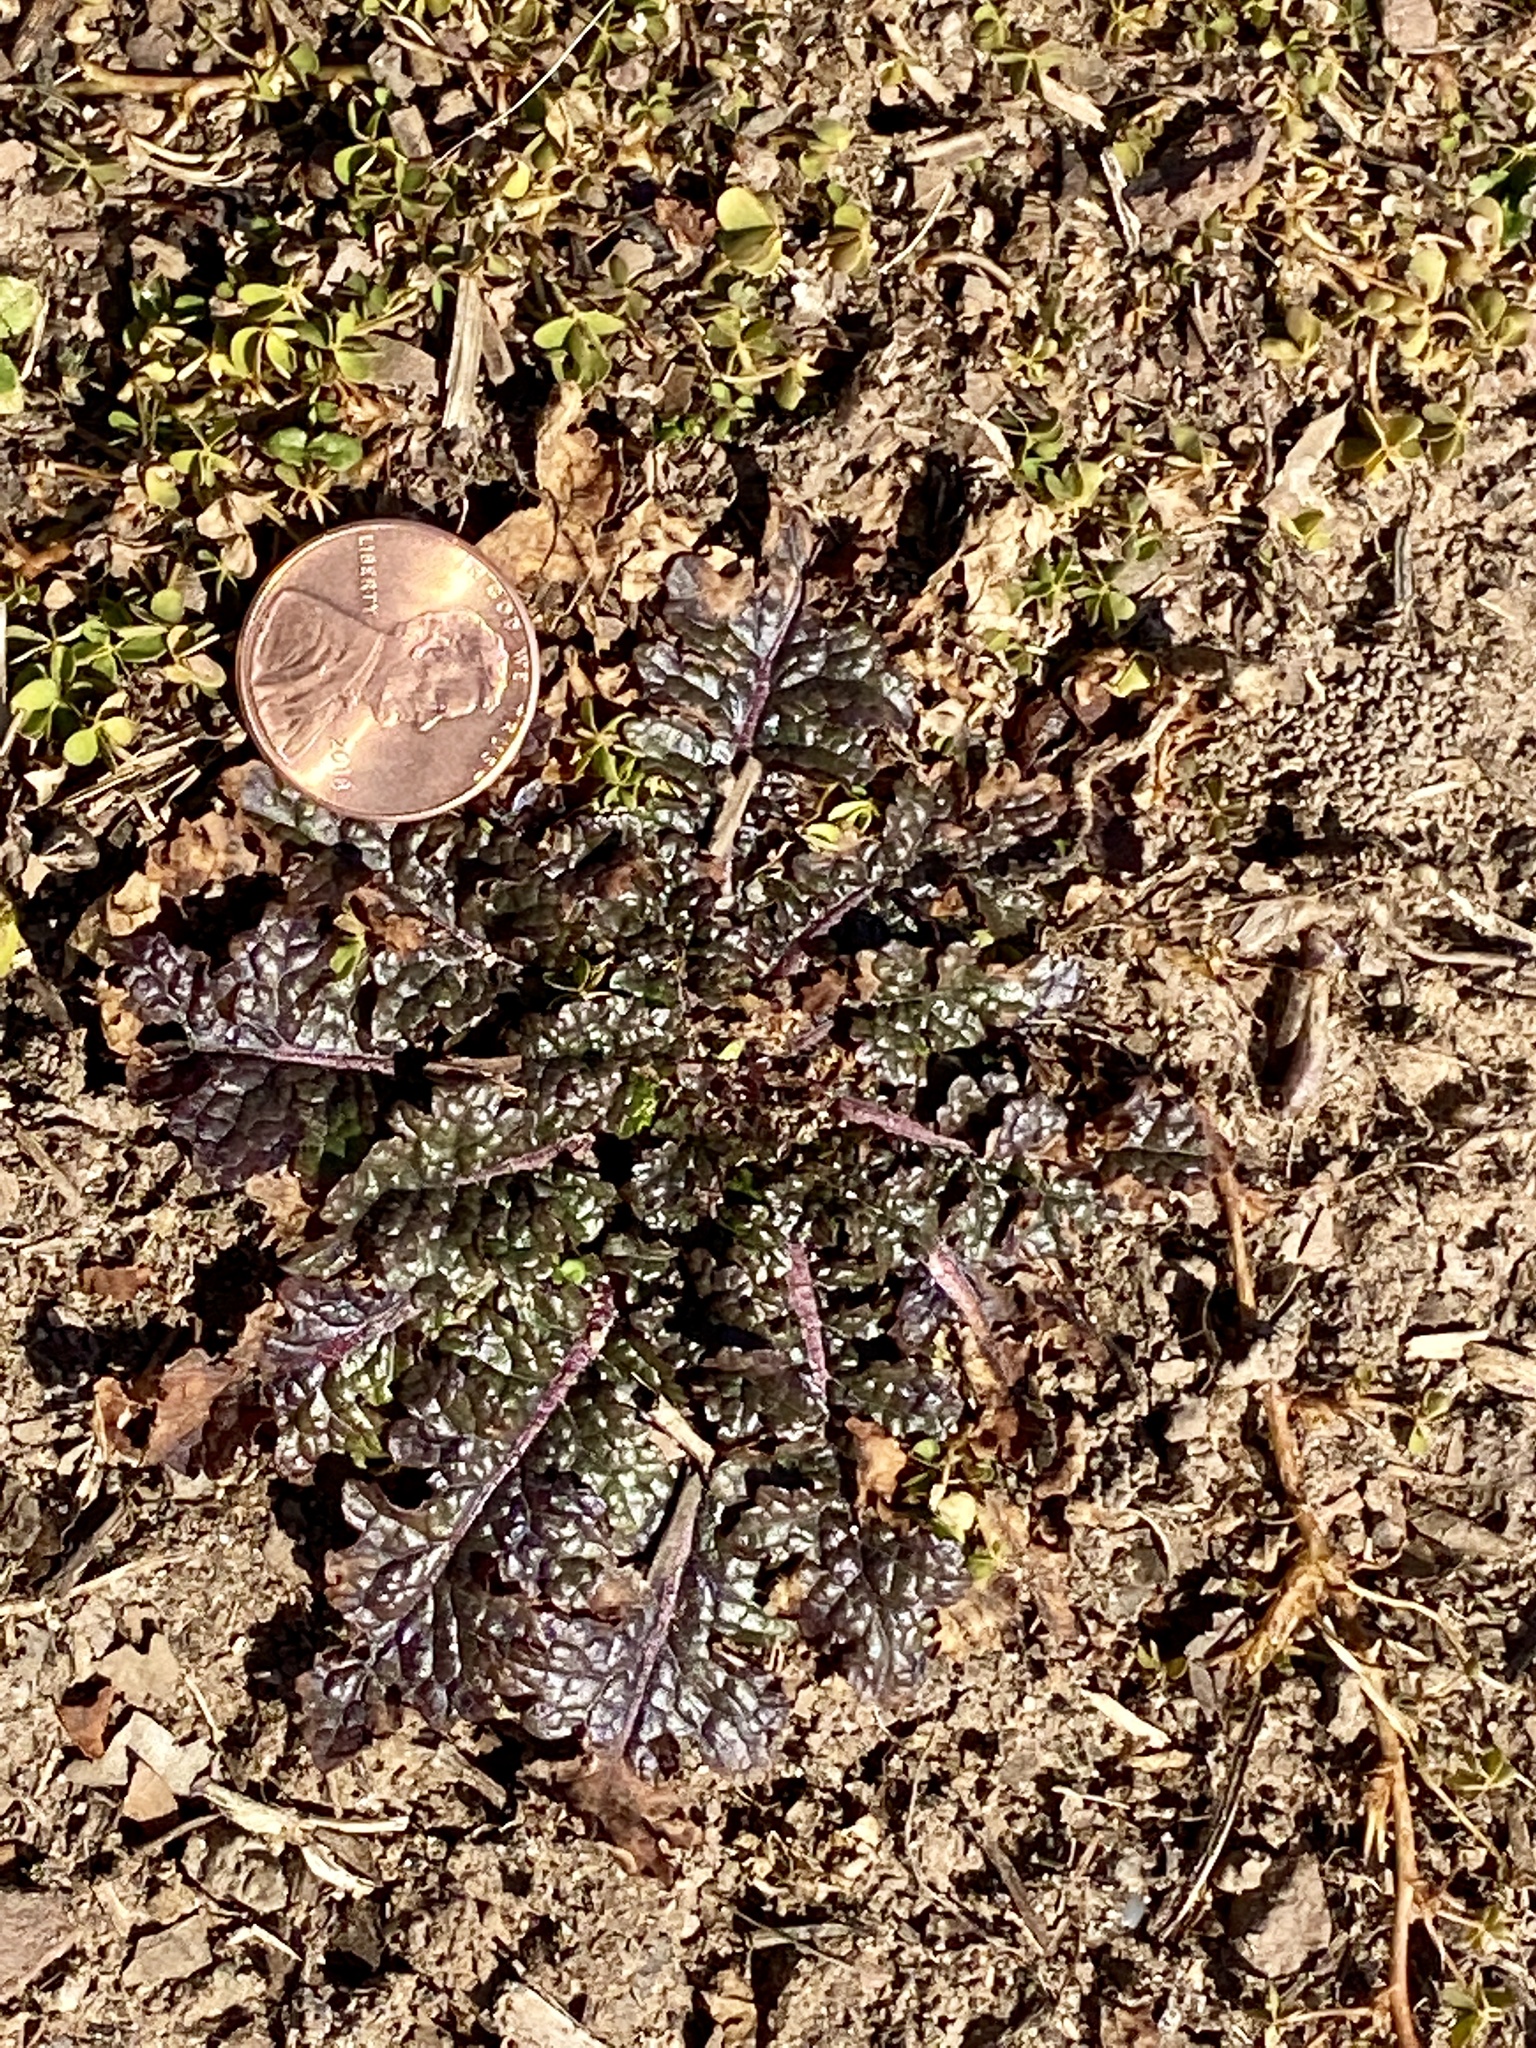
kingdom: Plantae
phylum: Tracheophyta
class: Magnoliopsida
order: Lamiales
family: Scrophulariaceae
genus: Verbascum
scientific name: Verbascum blattaria
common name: Moth mullein
